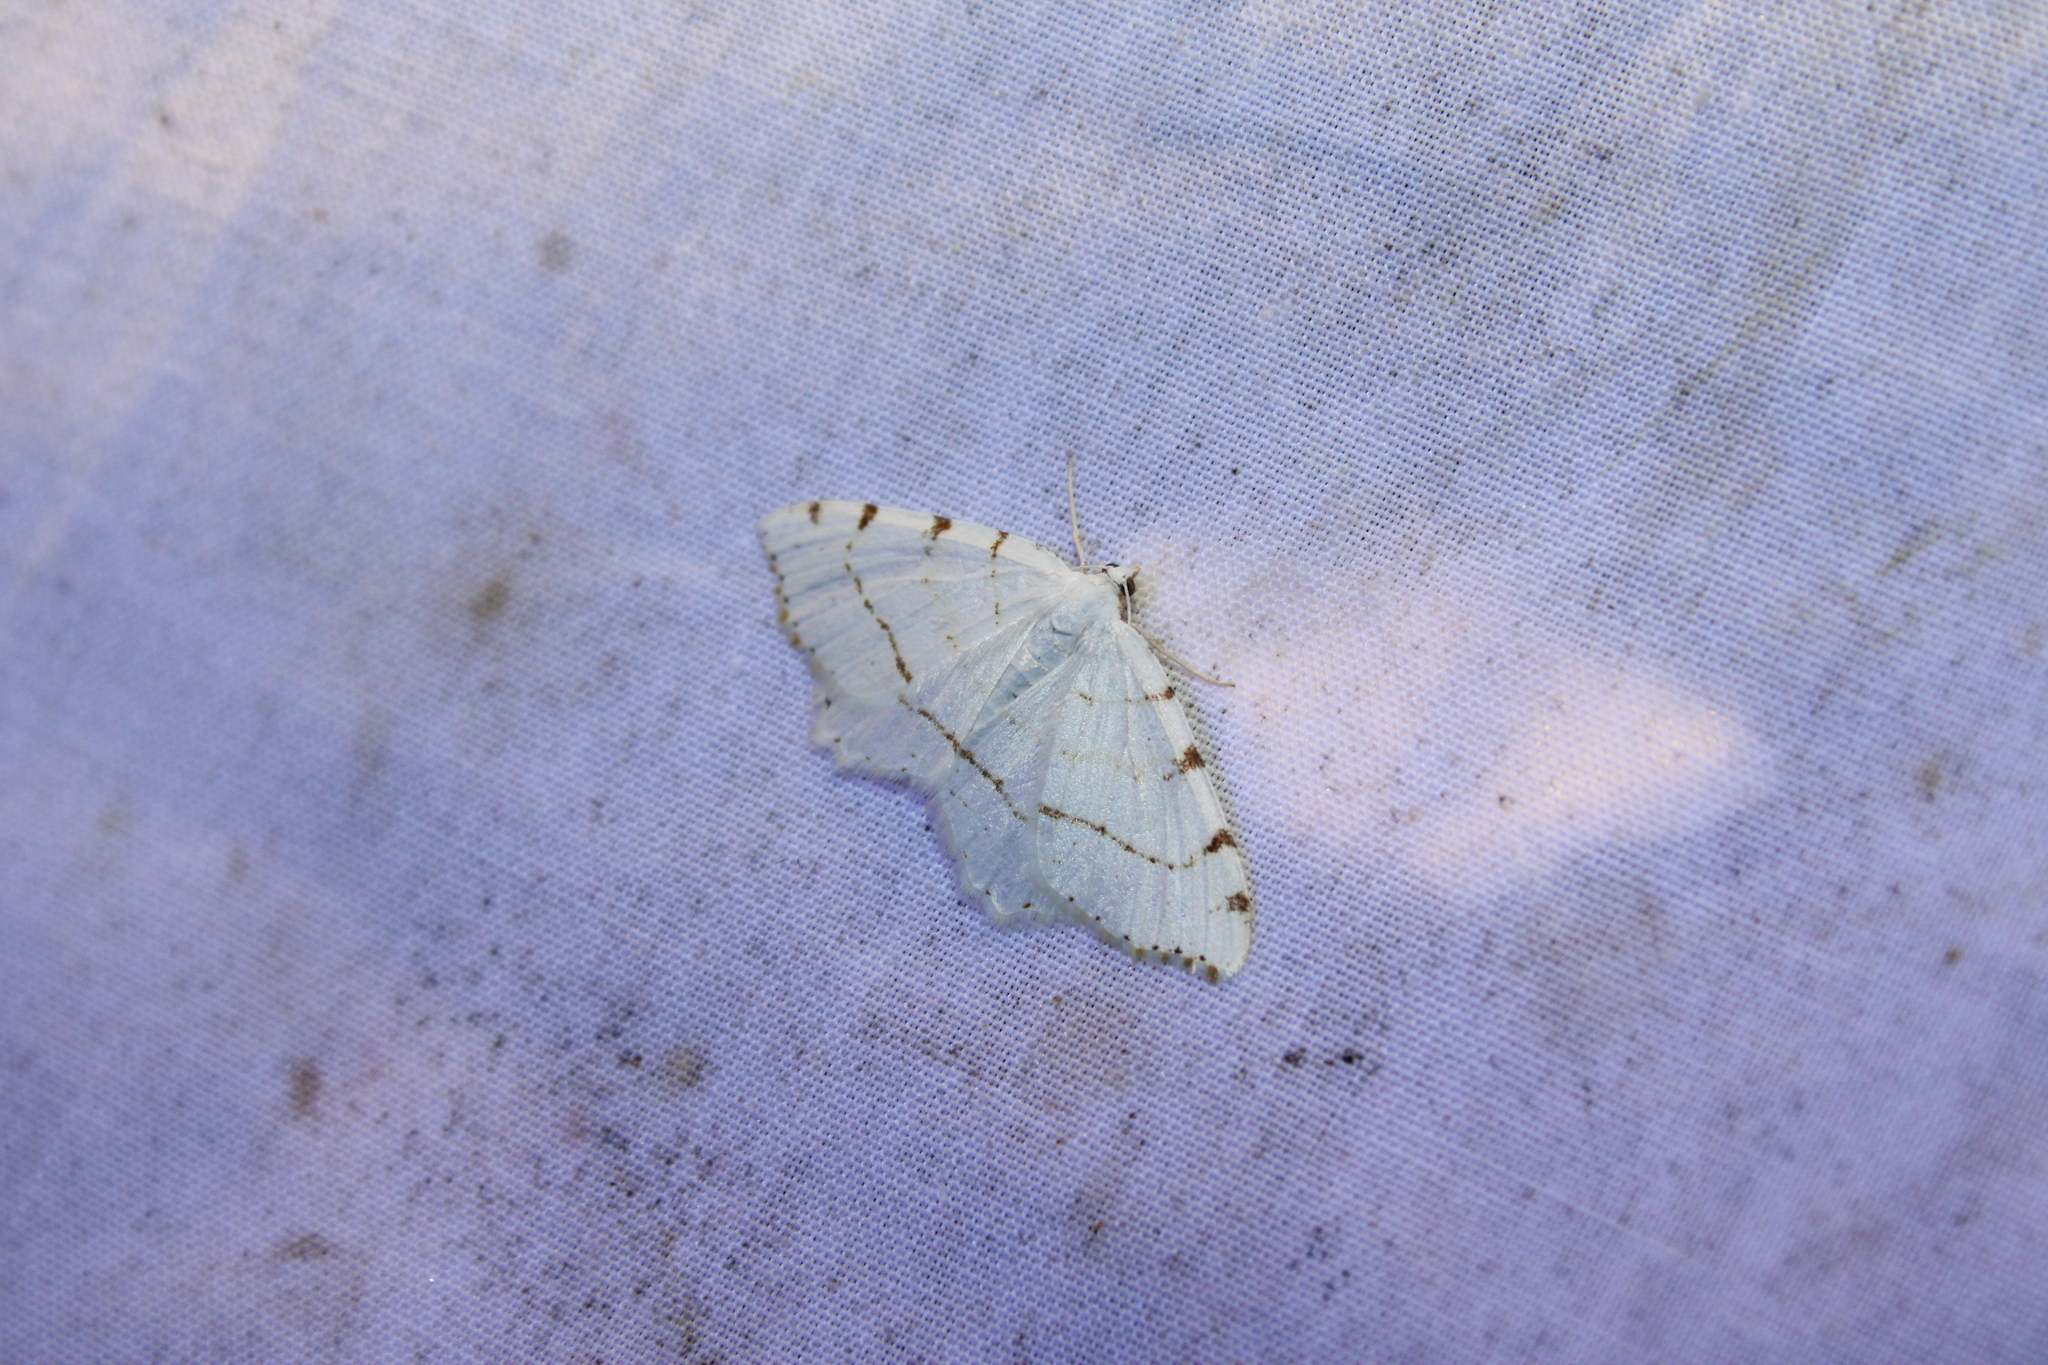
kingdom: Animalia
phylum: Arthropoda
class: Insecta
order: Lepidoptera
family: Geometridae
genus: Macaria
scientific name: Macaria pustularia
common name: Lesser maple spanworm moth
